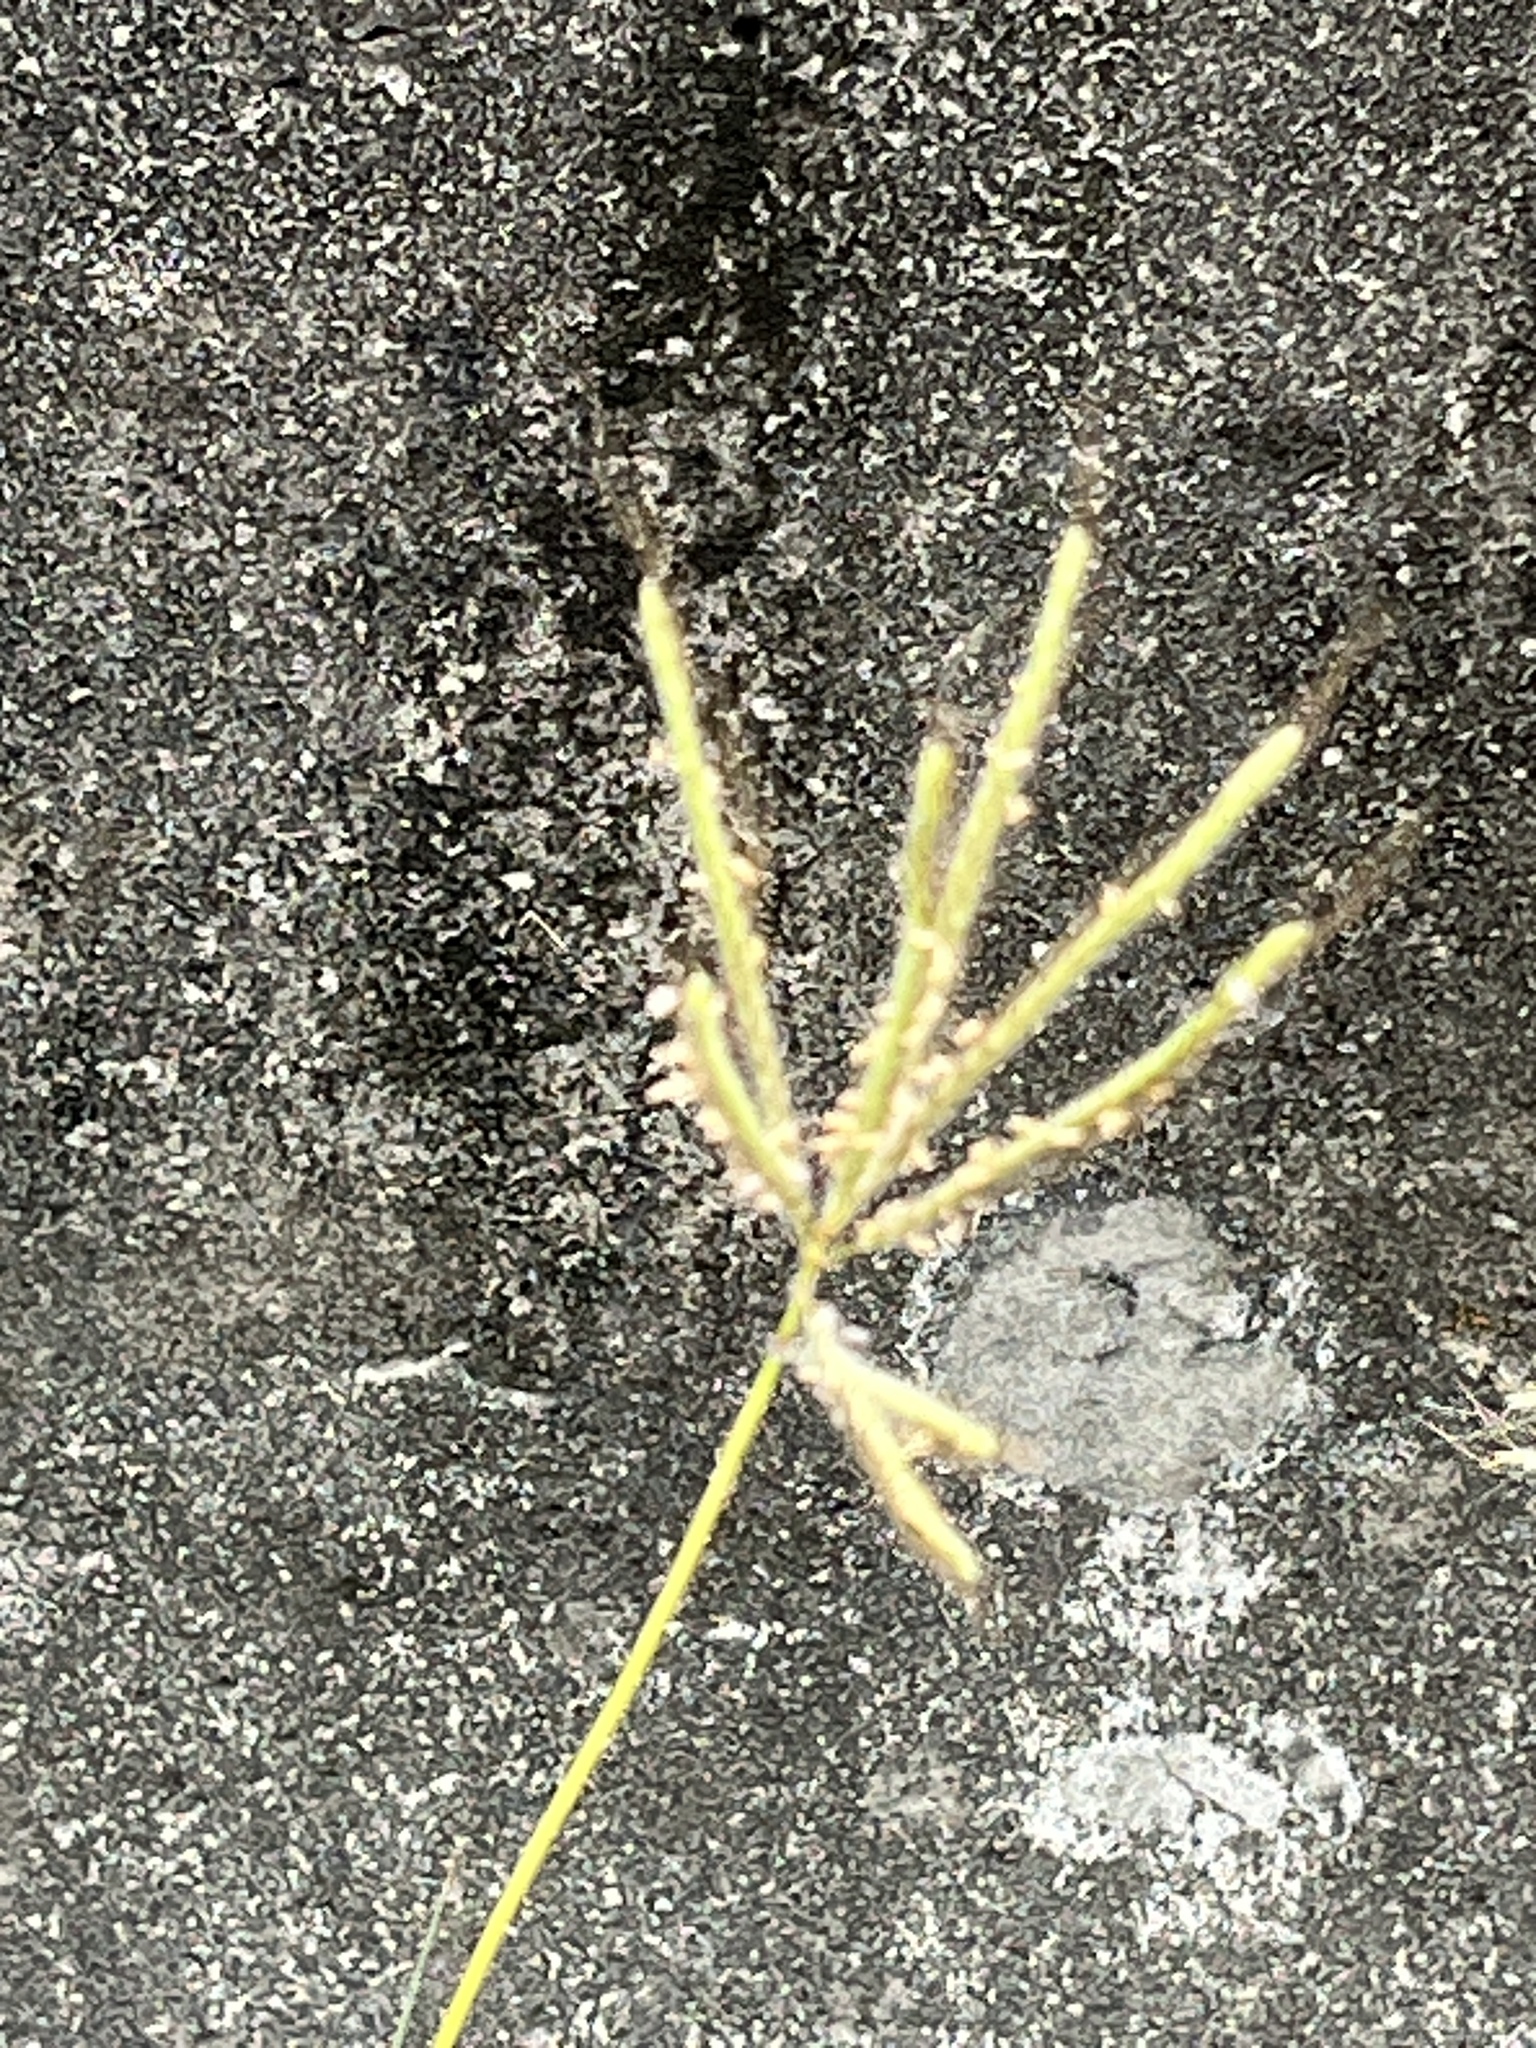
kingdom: Plantae
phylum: Tracheophyta
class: Liliopsida
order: Poales
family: Poaceae
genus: Chloris
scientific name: Chloris barbata
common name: Swollen fingergrass
